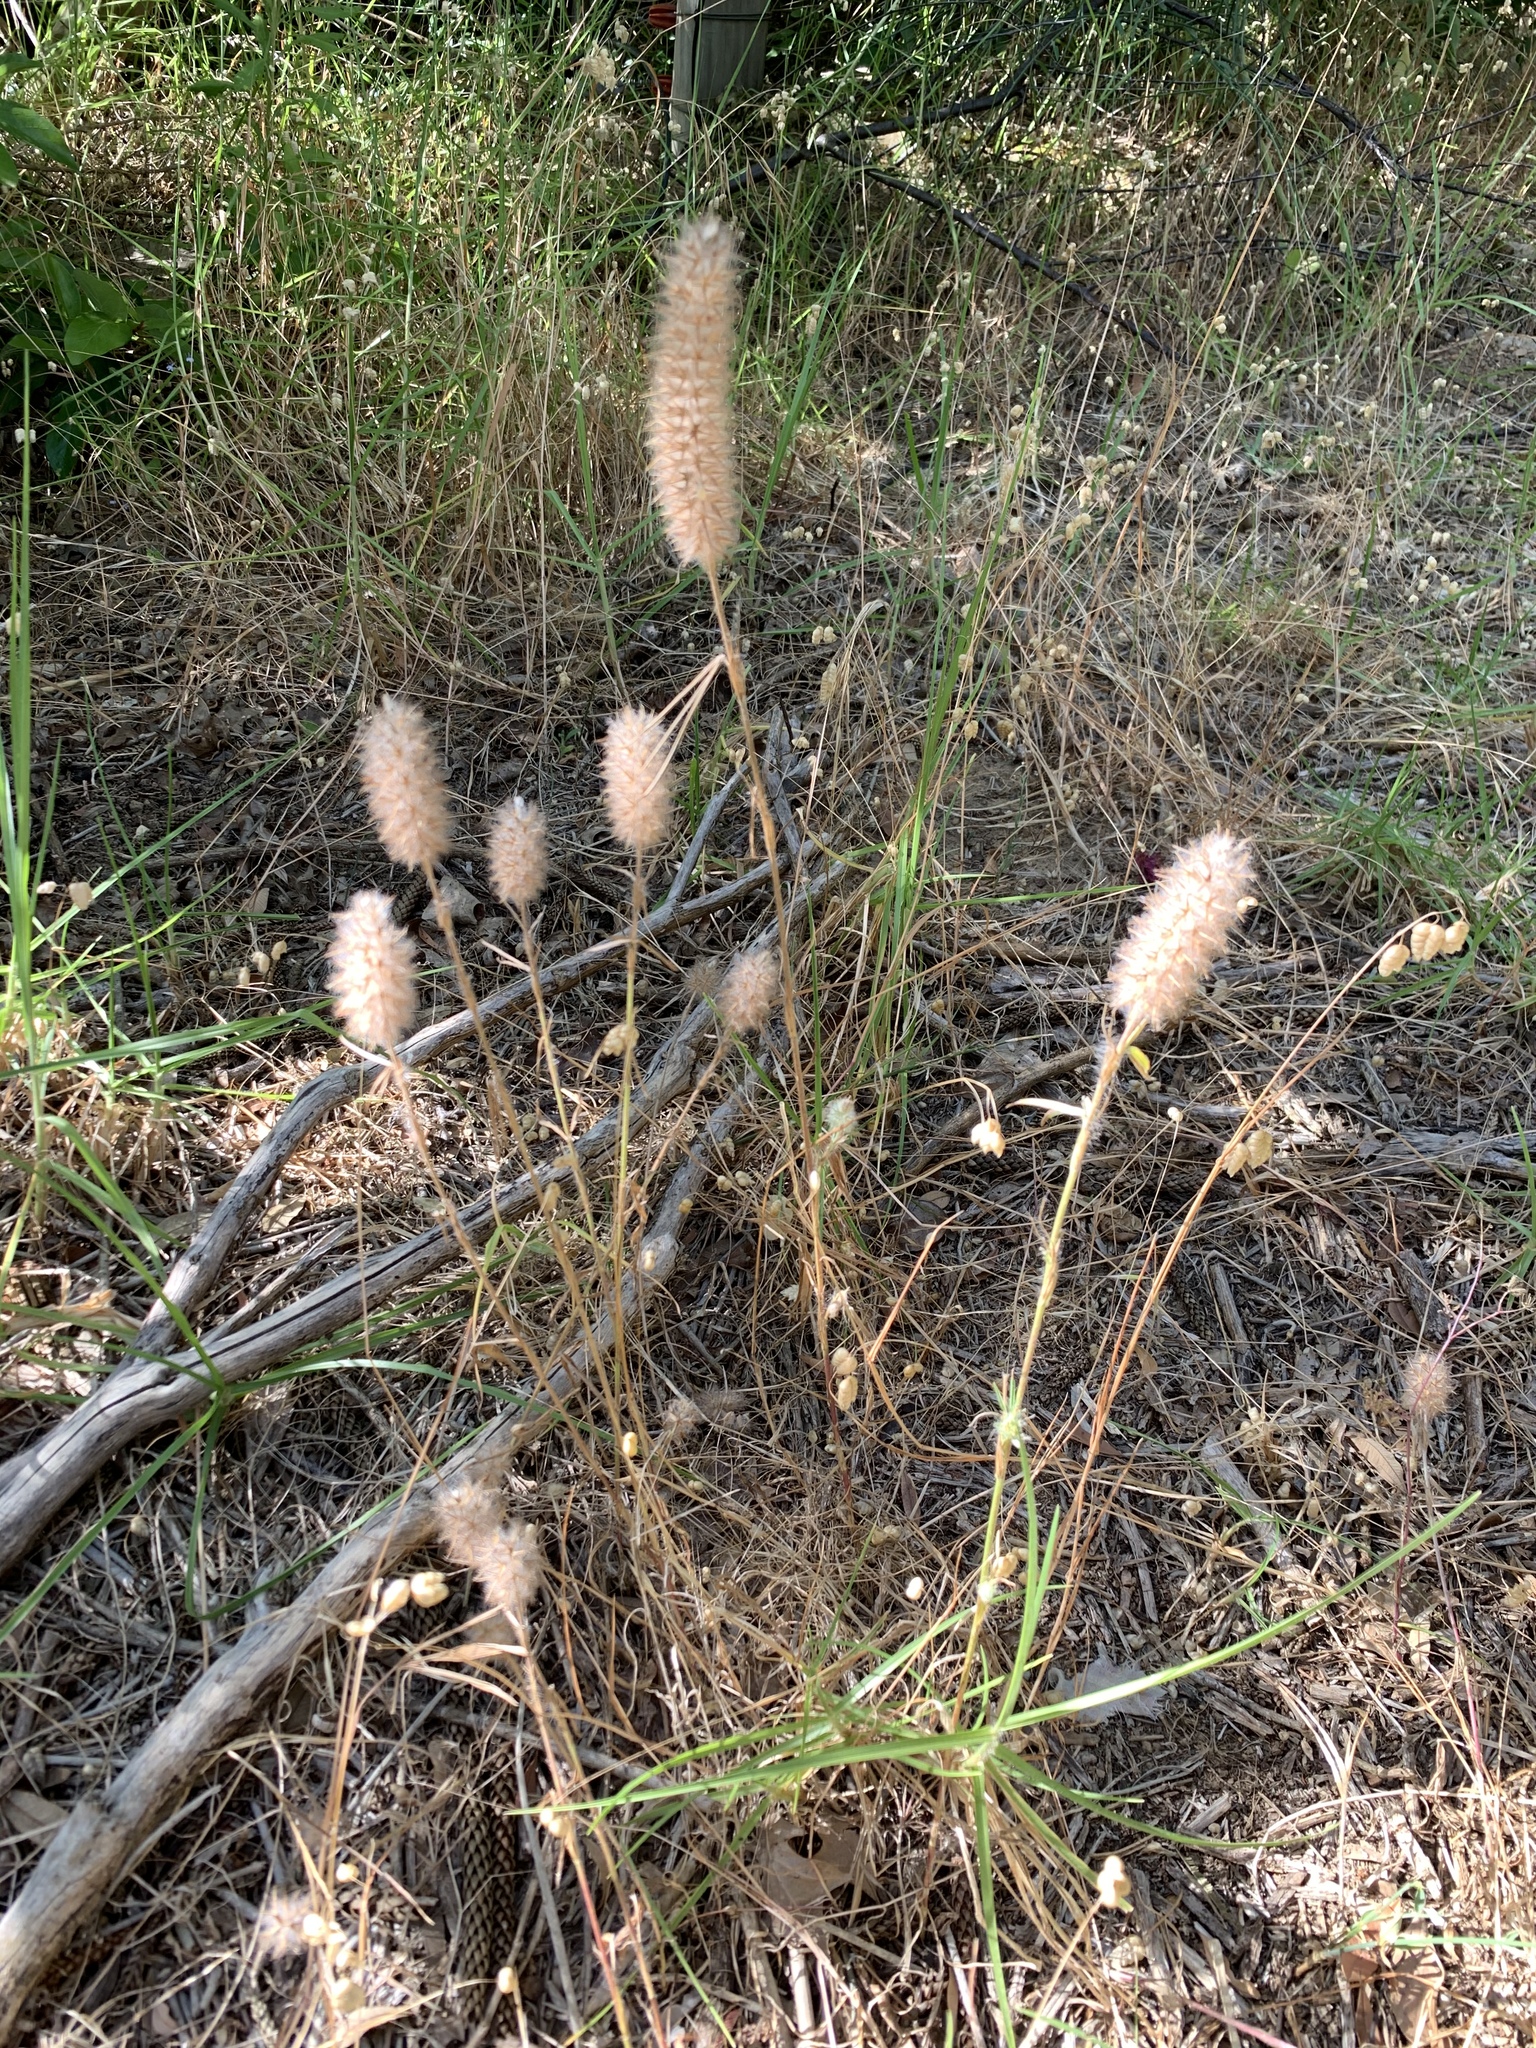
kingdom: Plantae
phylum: Tracheophyta
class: Magnoliopsida
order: Fabales
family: Fabaceae
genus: Trifolium
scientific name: Trifolium angustifolium
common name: Narrow clover
